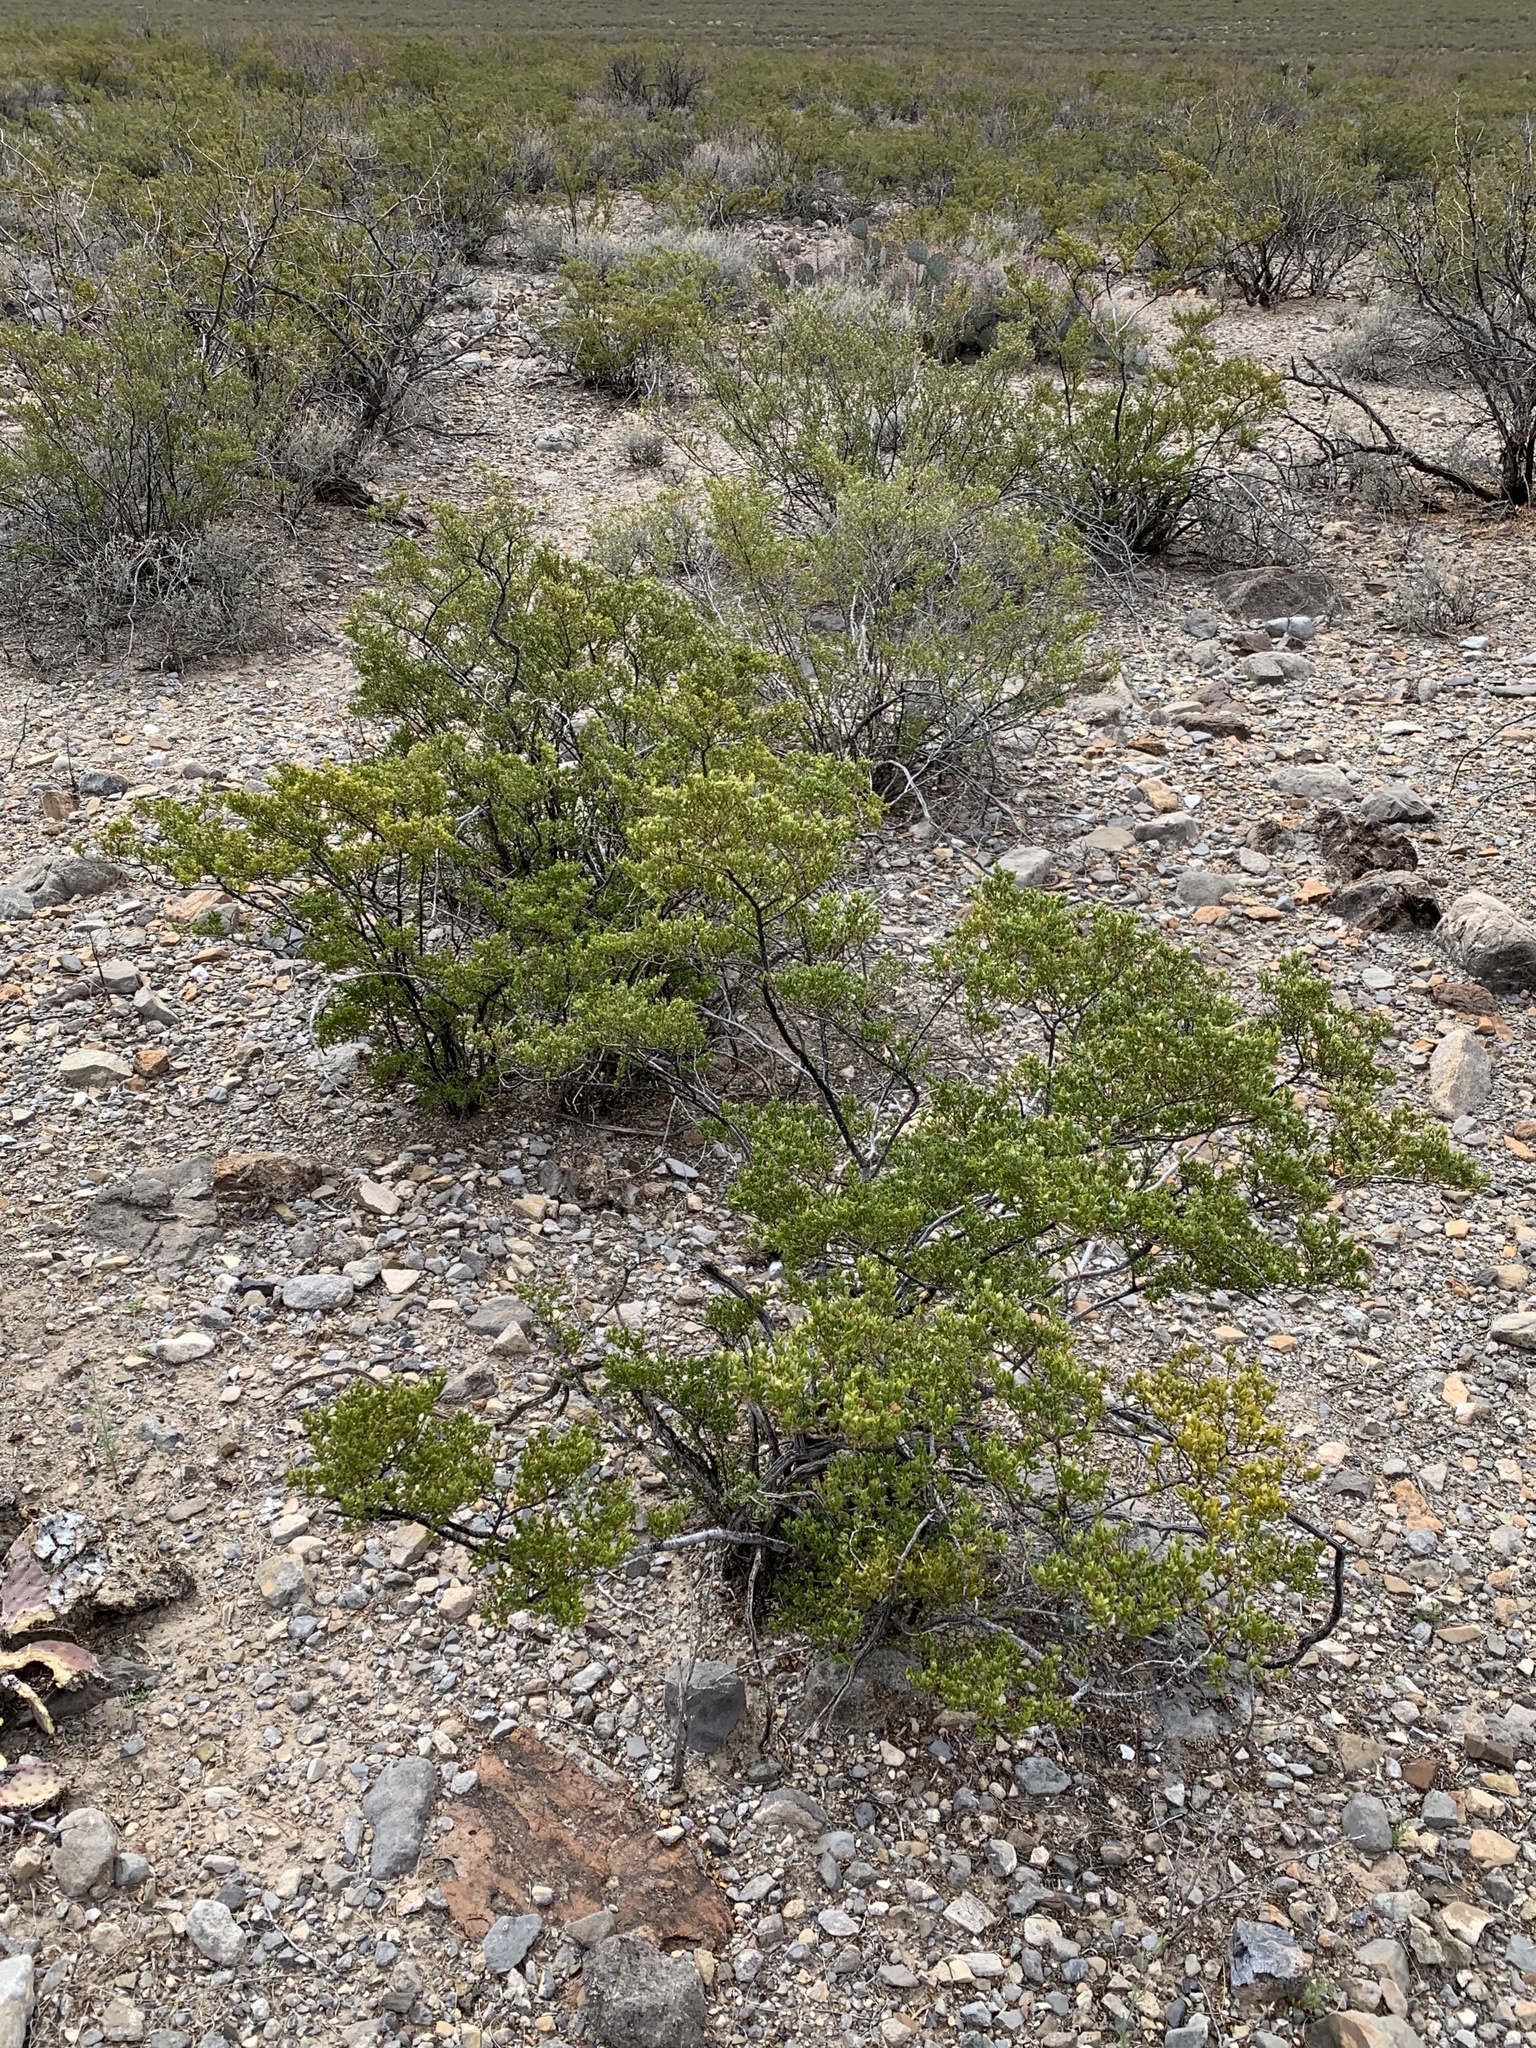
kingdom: Plantae
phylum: Tracheophyta
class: Magnoliopsida
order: Zygophyllales
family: Zygophyllaceae
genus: Larrea
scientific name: Larrea tridentata
